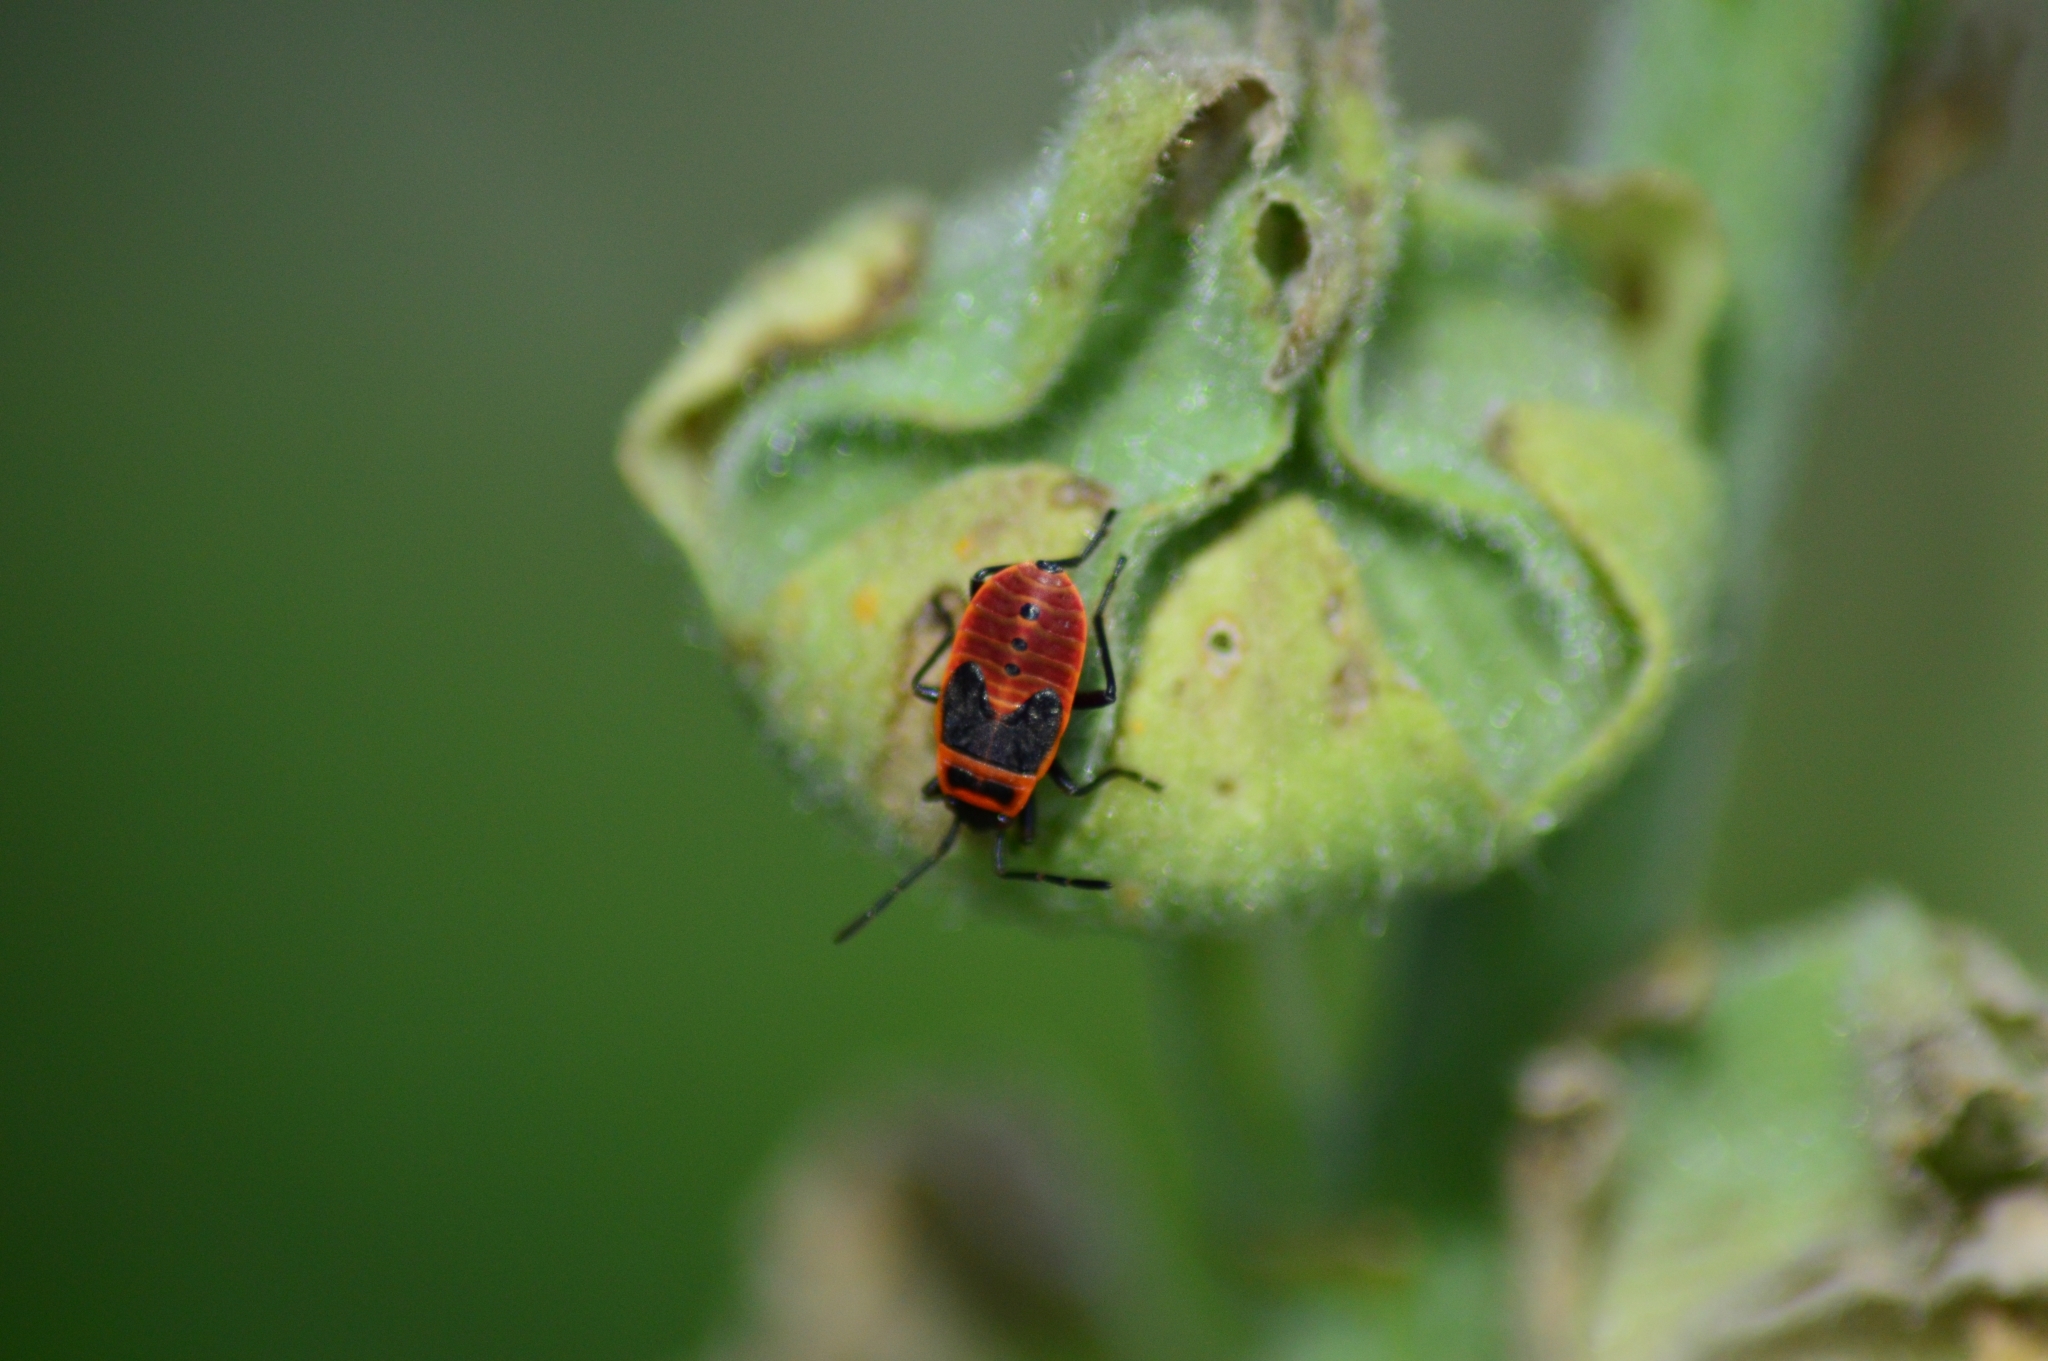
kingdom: Animalia
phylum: Arthropoda
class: Insecta
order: Hemiptera
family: Pyrrhocoridae
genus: Pyrrhocoris
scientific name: Pyrrhocoris apterus
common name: Firebug
